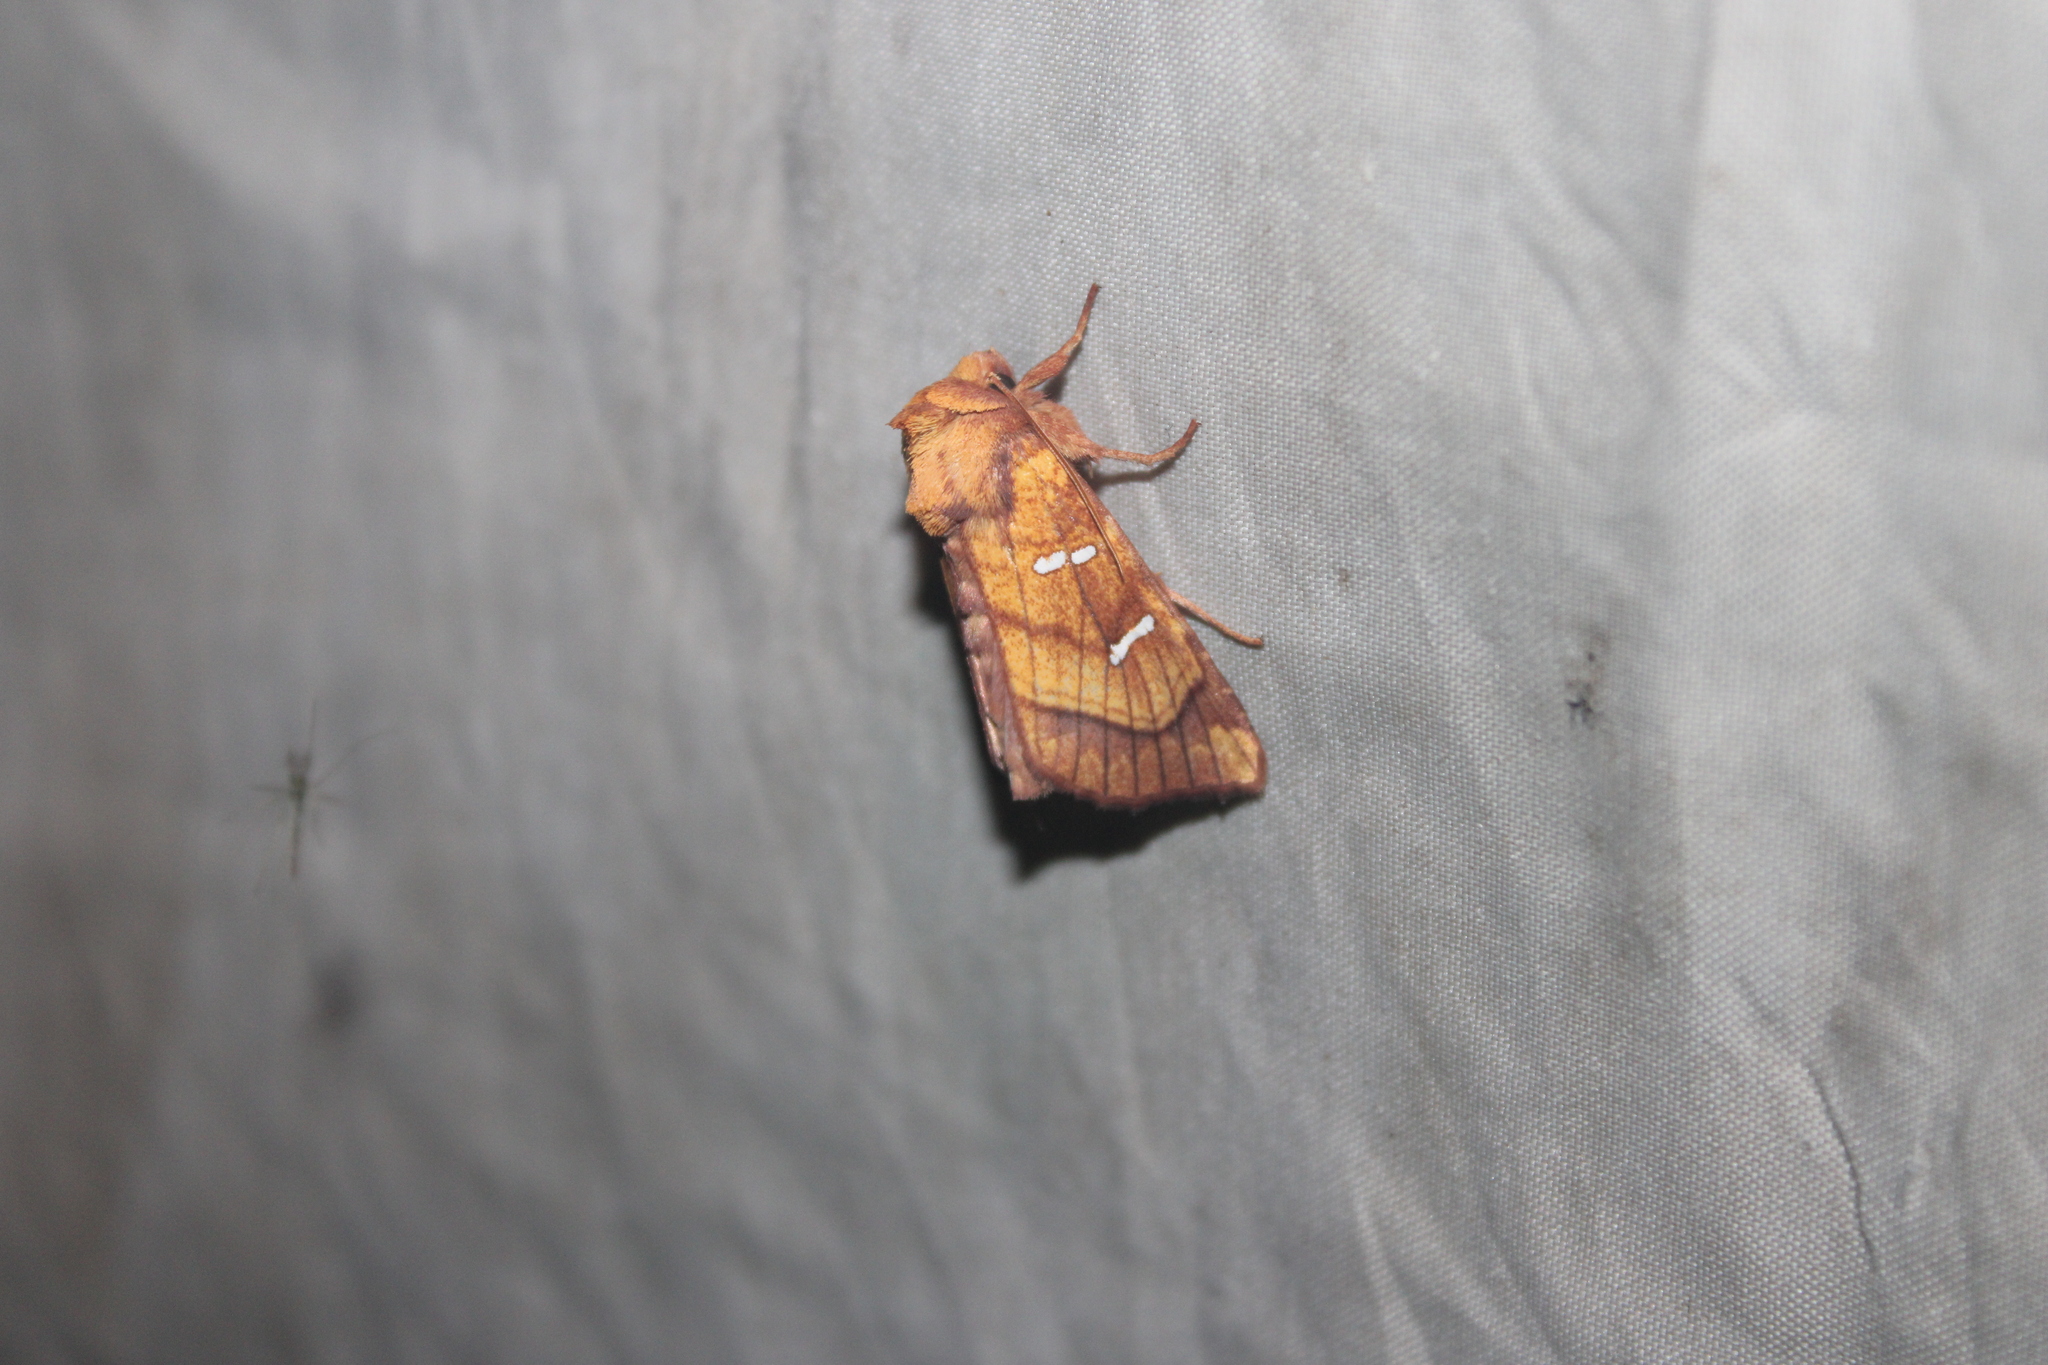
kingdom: Animalia
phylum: Arthropoda
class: Insecta
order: Lepidoptera
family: Noctuidae
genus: Papaipema
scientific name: Papaipema speciosissima
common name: Osmunda borer moth
